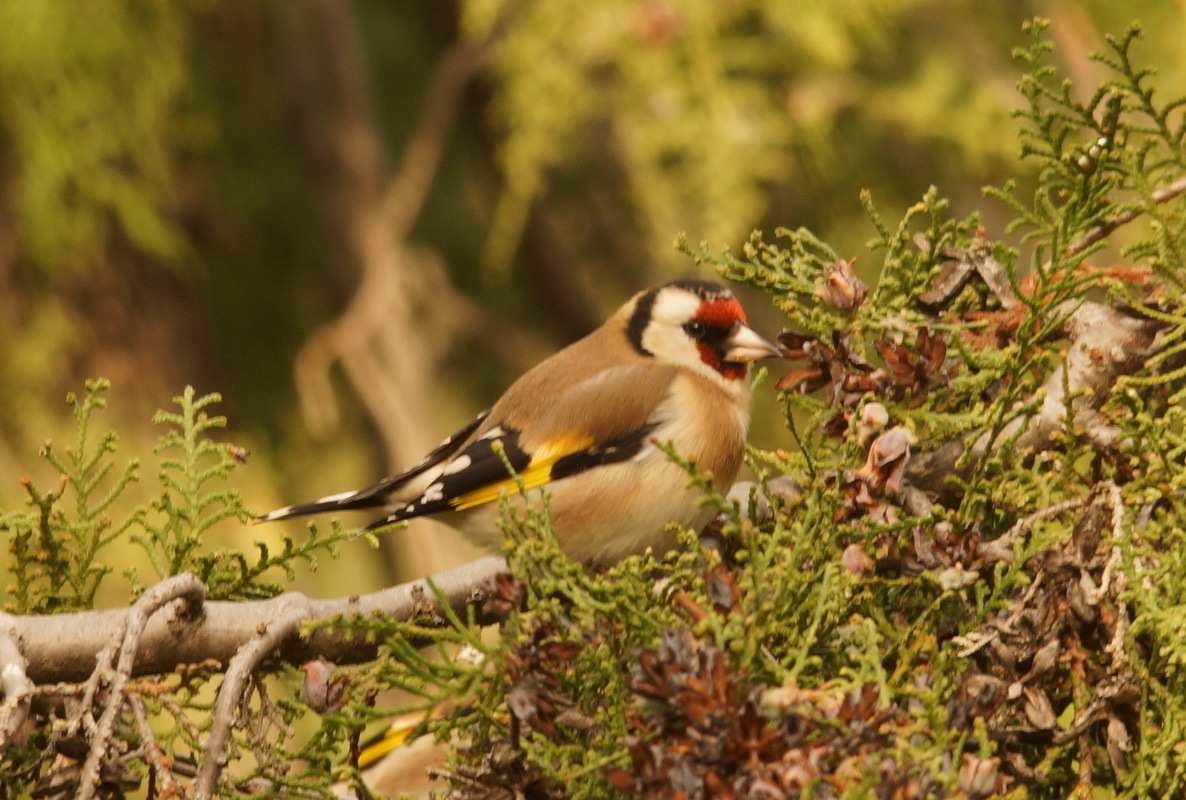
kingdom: Animalia
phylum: Chordata
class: Aves
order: Passeriformes
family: Fringillidae
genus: Carduelis
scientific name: Carduelis carduelis
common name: European goldfinch
